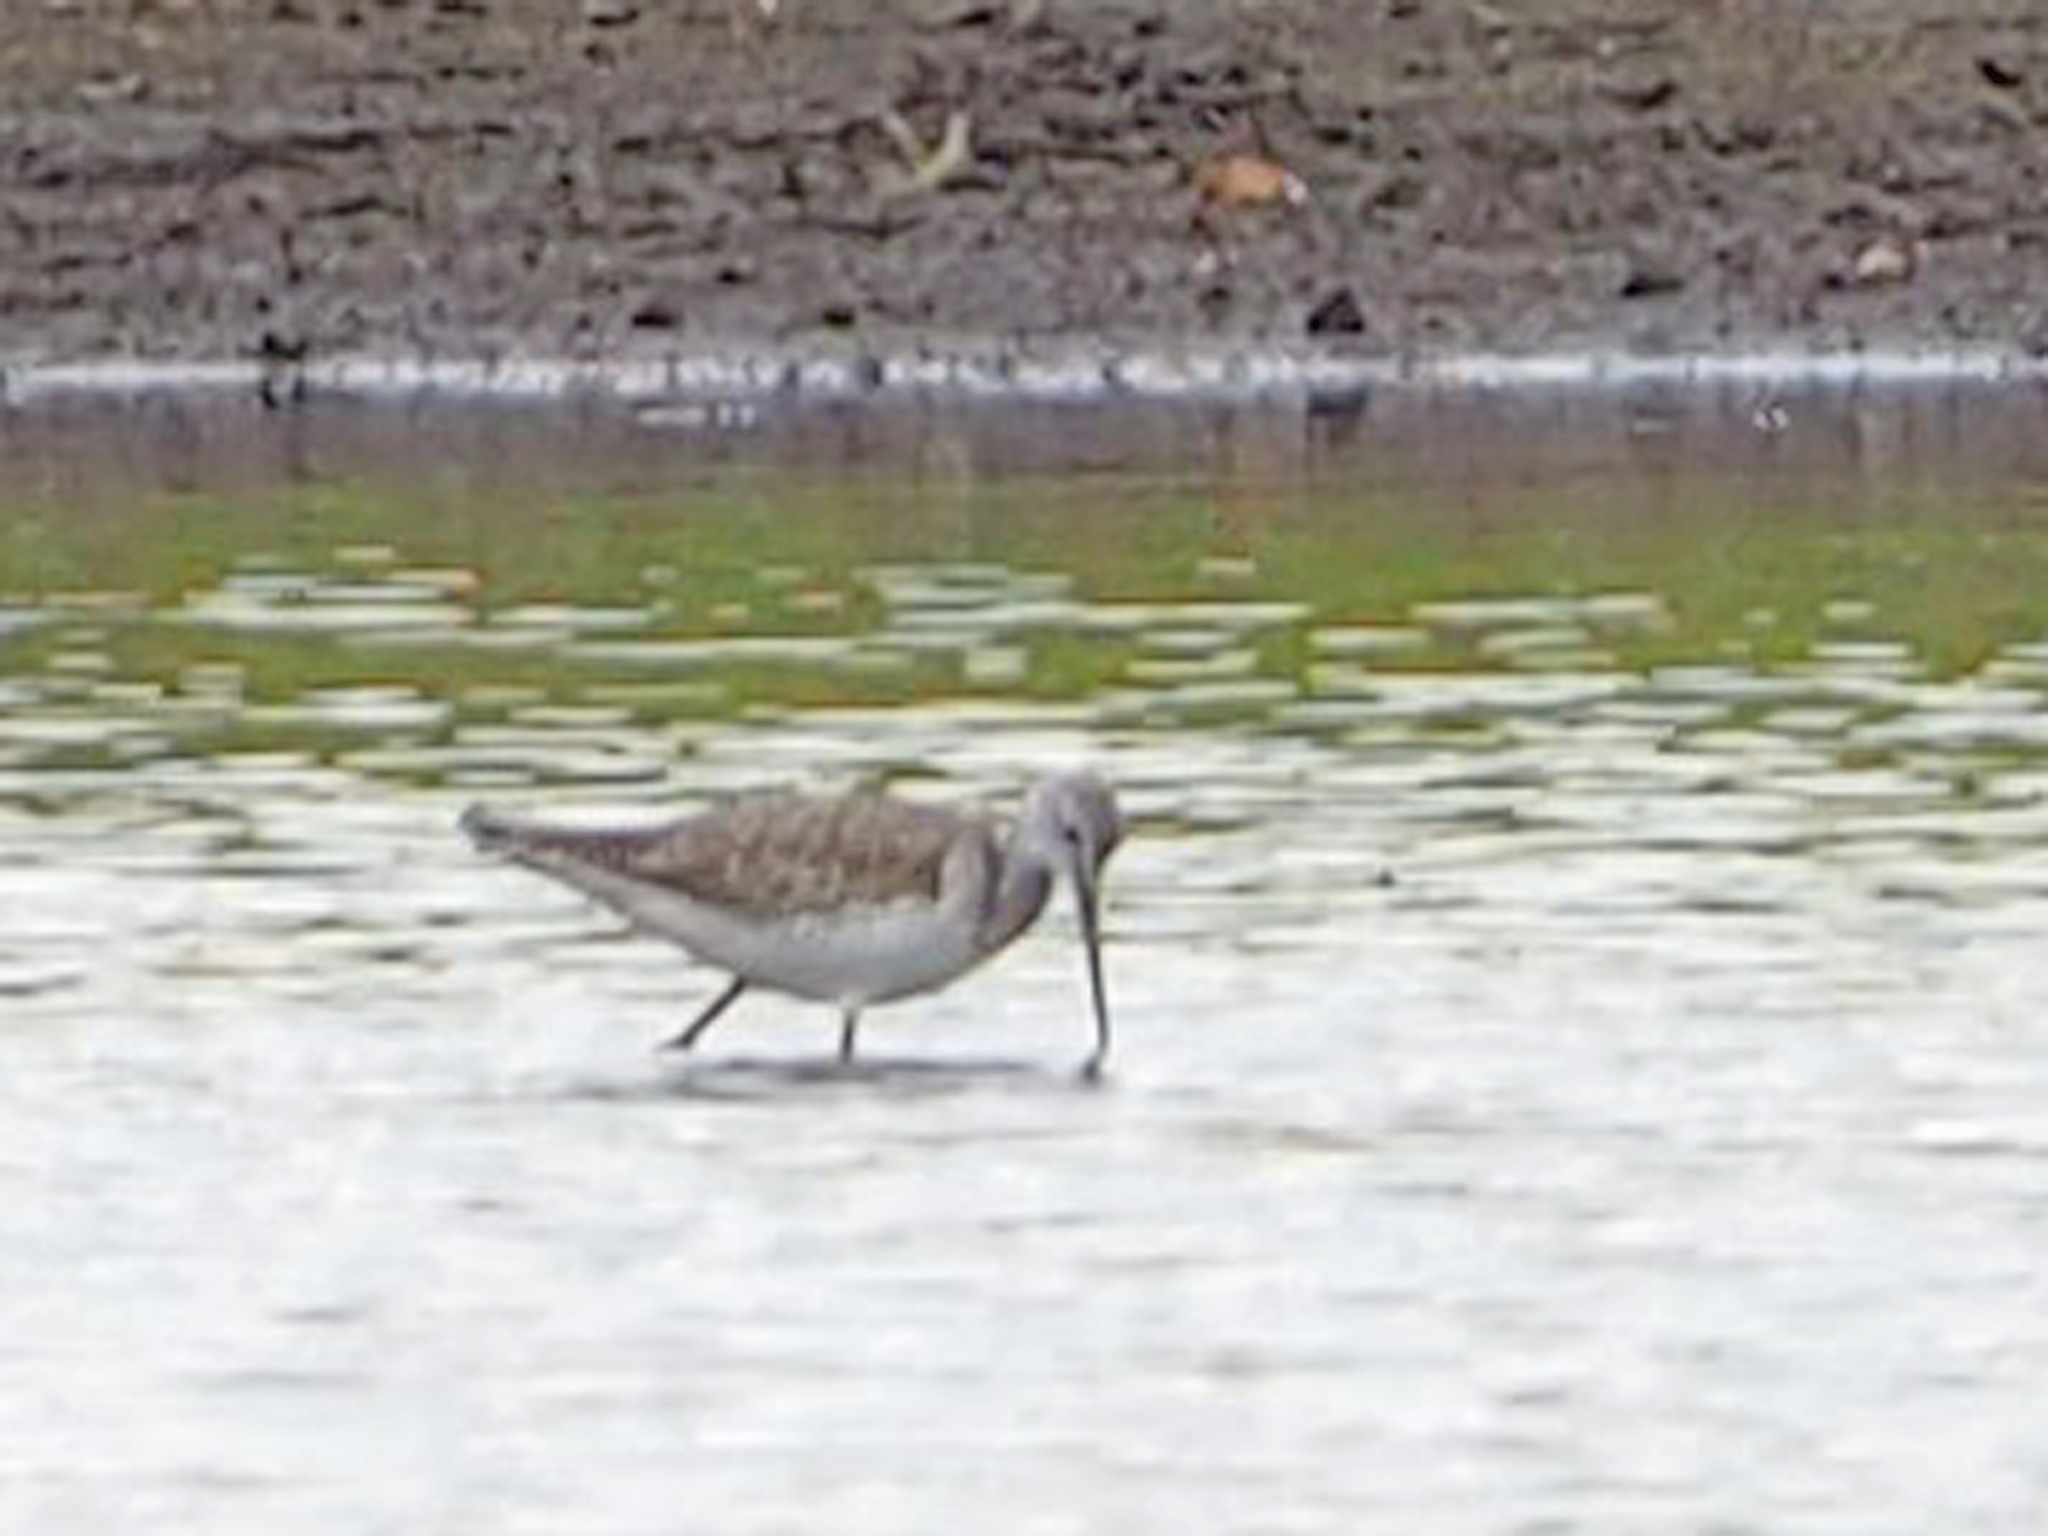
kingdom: Animalia
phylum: Chordata
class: Aves
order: Charadriiformes
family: Scolopacidae
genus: Tringa
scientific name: Tringa melanoleuca
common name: Greater yellowlegs
